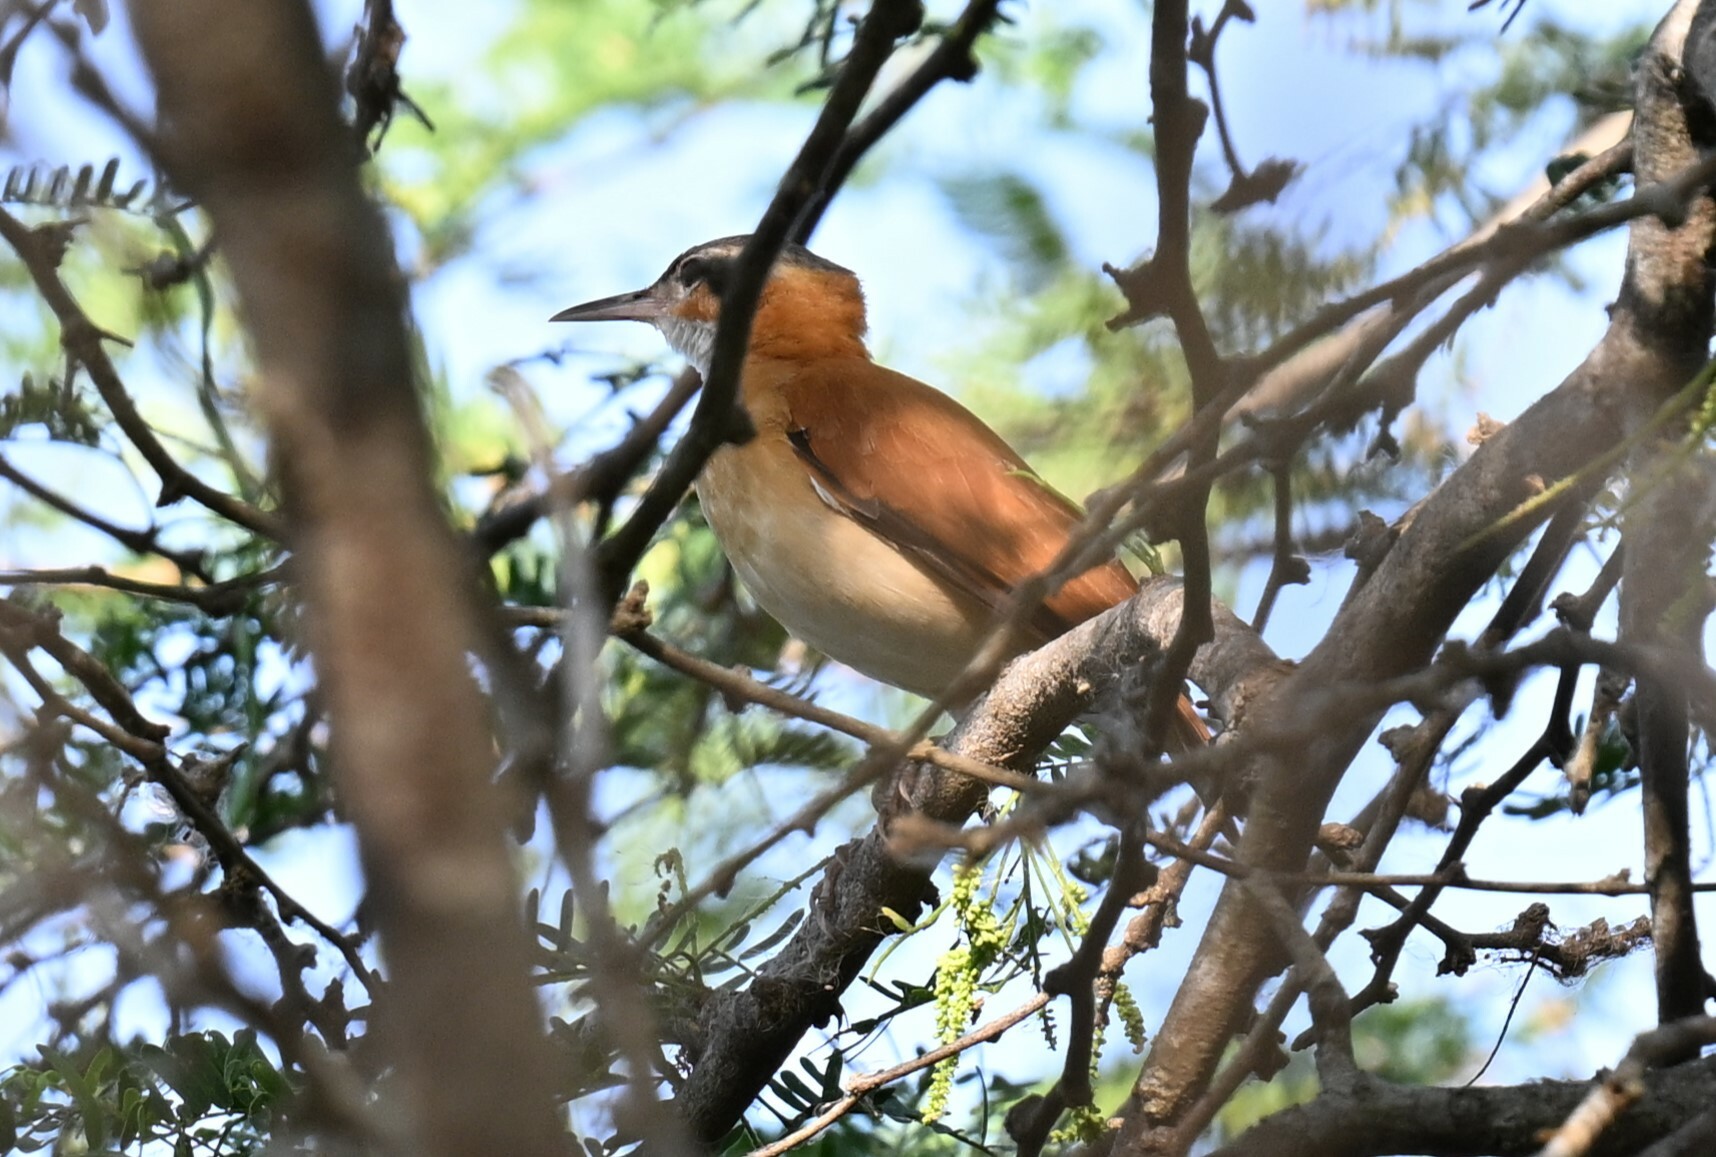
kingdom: Animalia
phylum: Chordata
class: Aves
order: Passeriformes
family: Furnariidae
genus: Furnarius
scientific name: Furnarius longirostris
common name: Caribbean hornero
